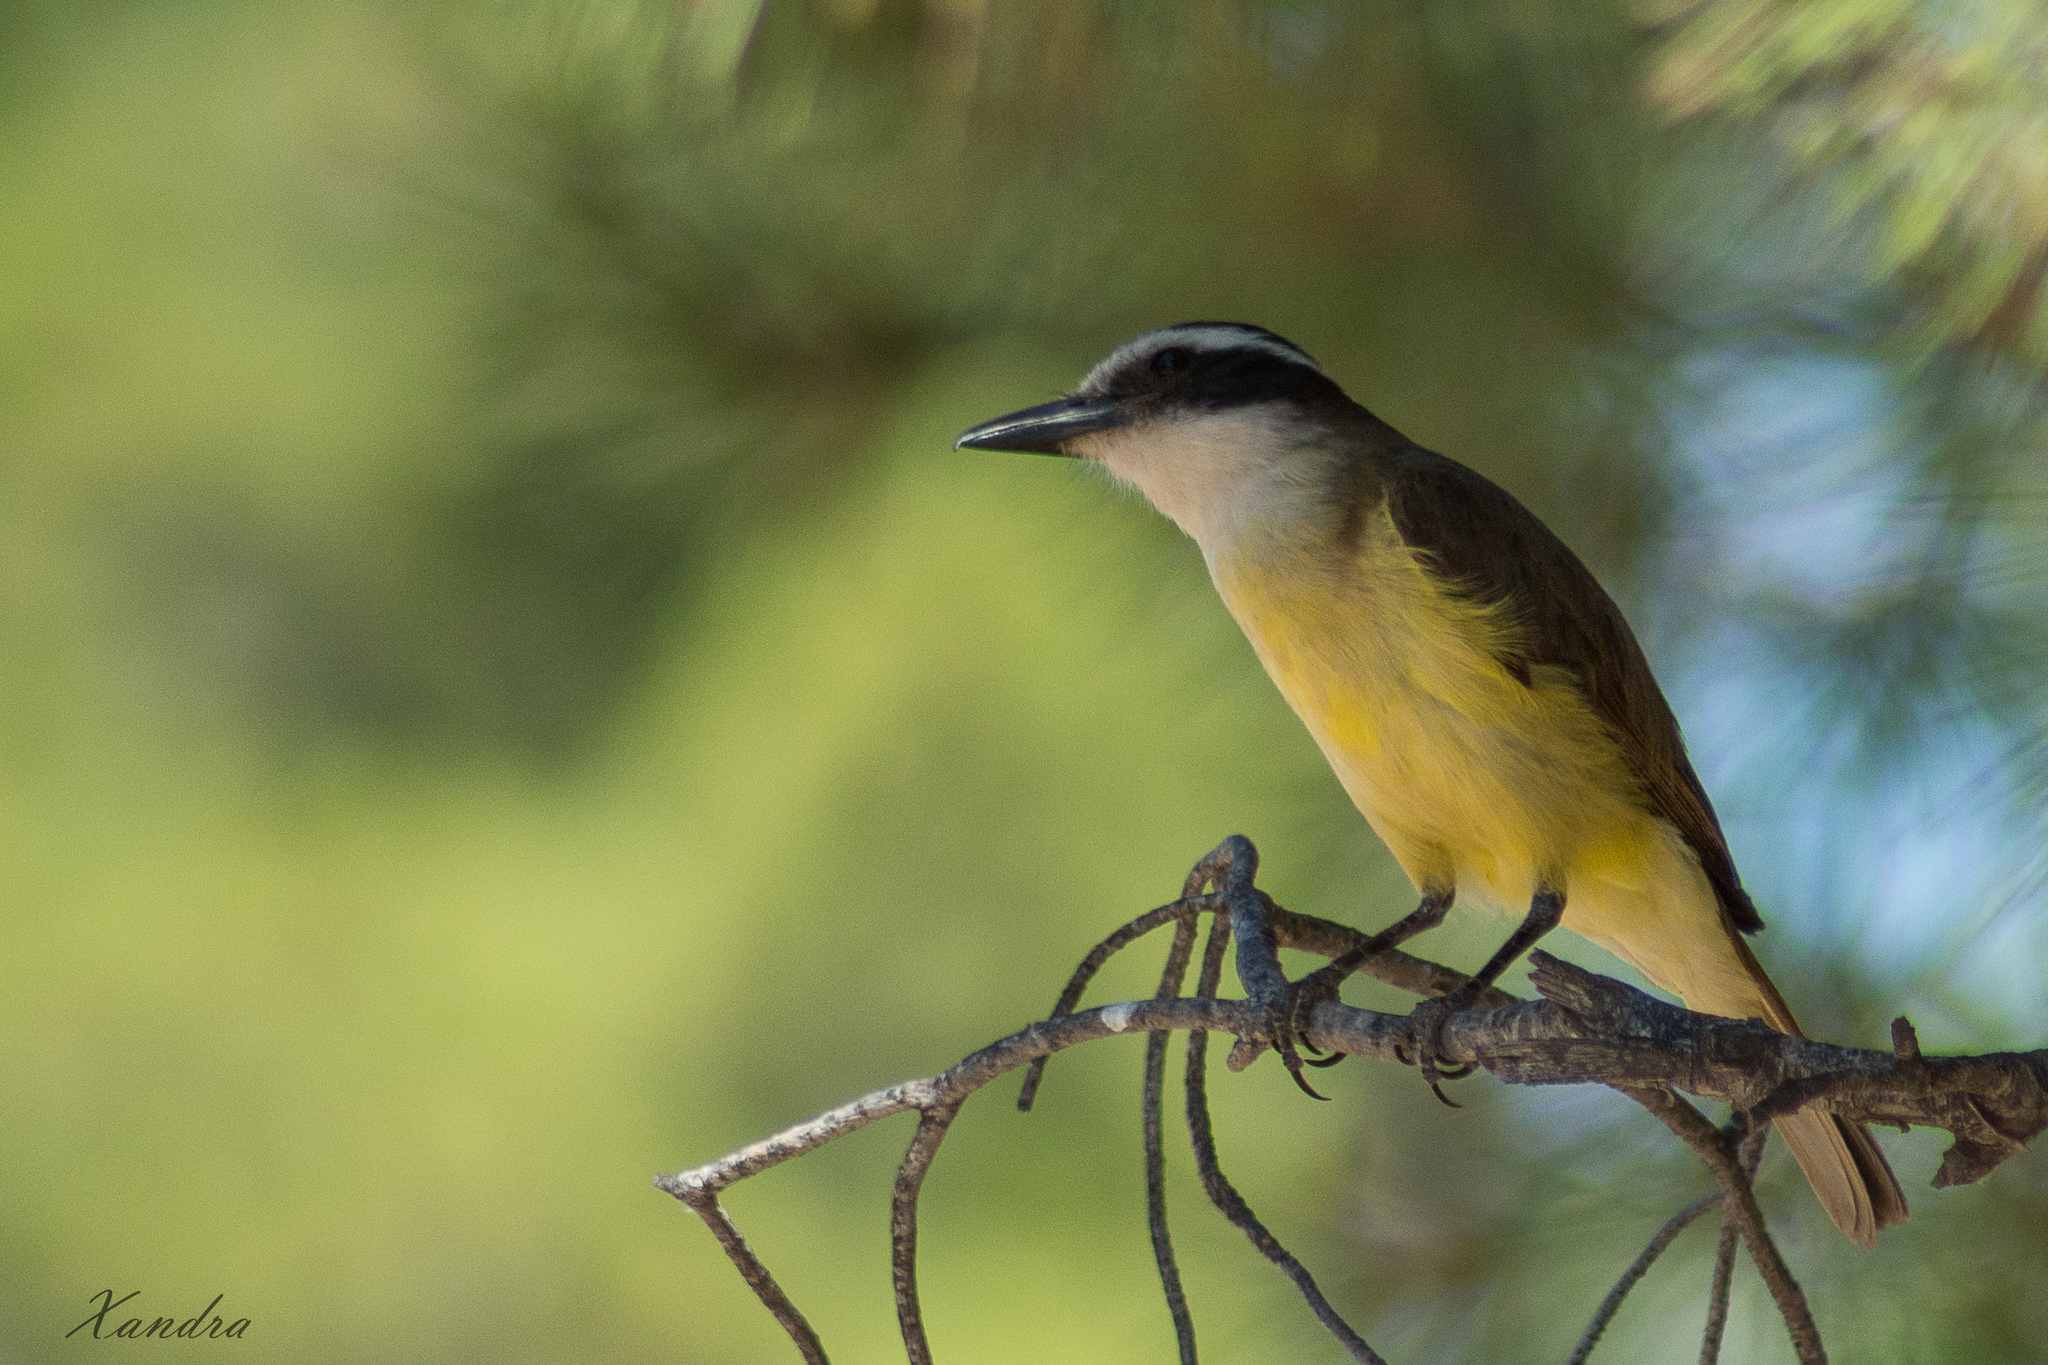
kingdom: Animalia
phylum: Chordata
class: Aves
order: Passeriformes
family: Tyrannidae
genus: Pitangus
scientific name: Pitangus sulphuratus
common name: Great kiskadee
